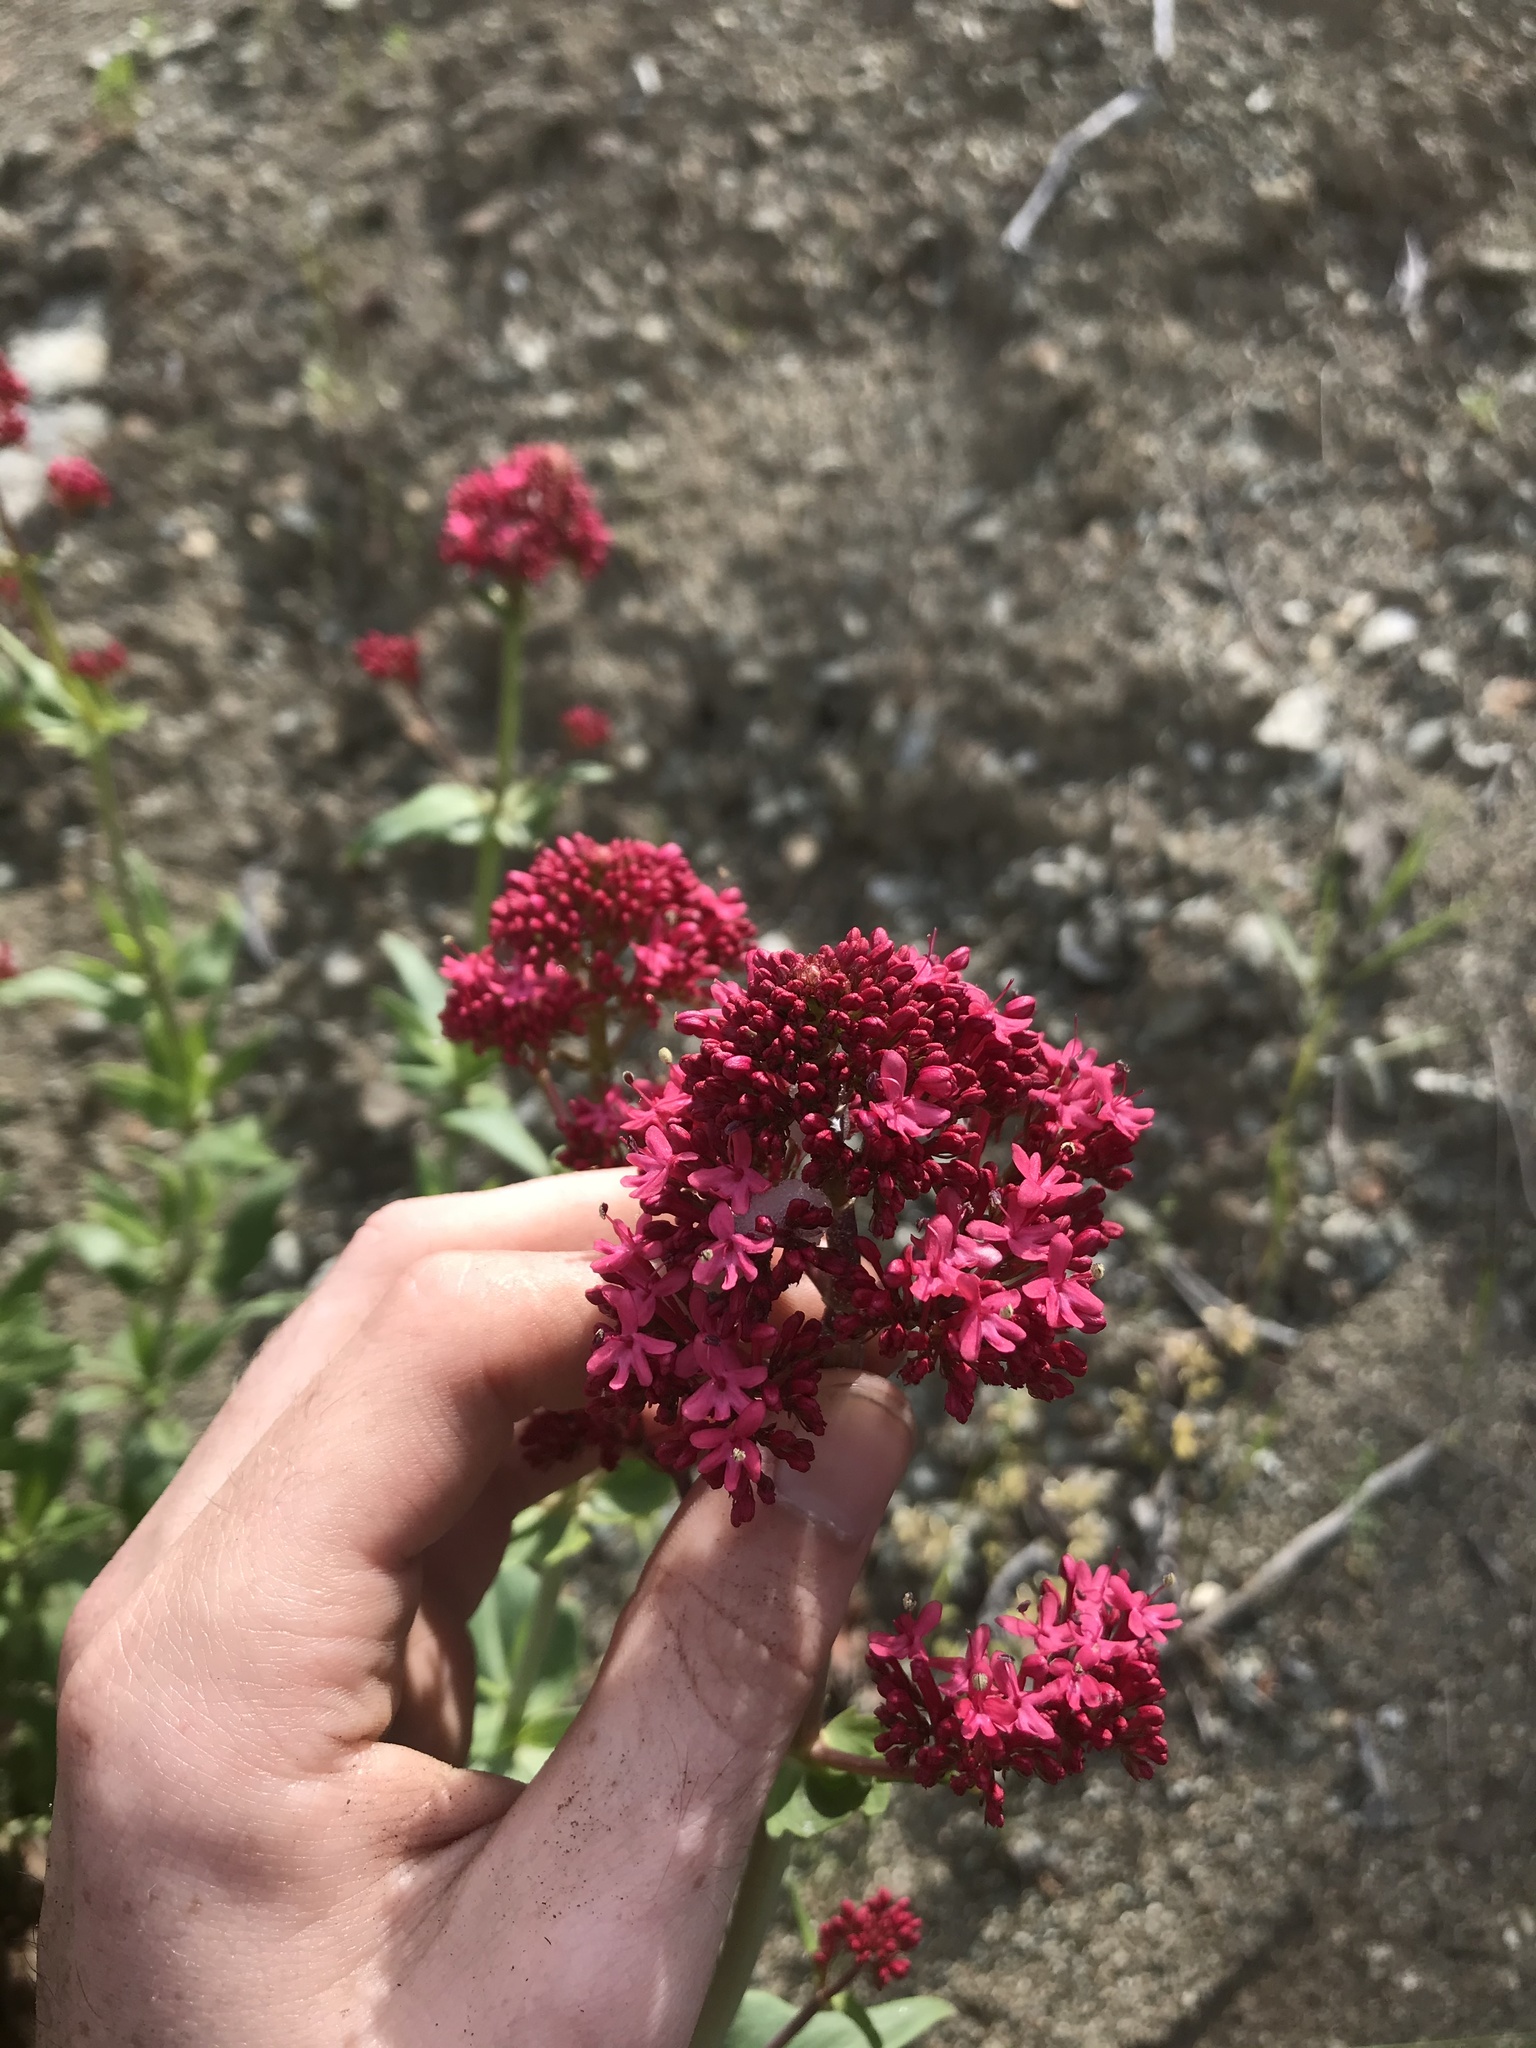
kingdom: Plantae
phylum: Tracheophyta
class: Magnoliopsida
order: Dipsacales
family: Caprifoliaceae
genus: Centranthus
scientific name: Centranthus ruber
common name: Red valerian
